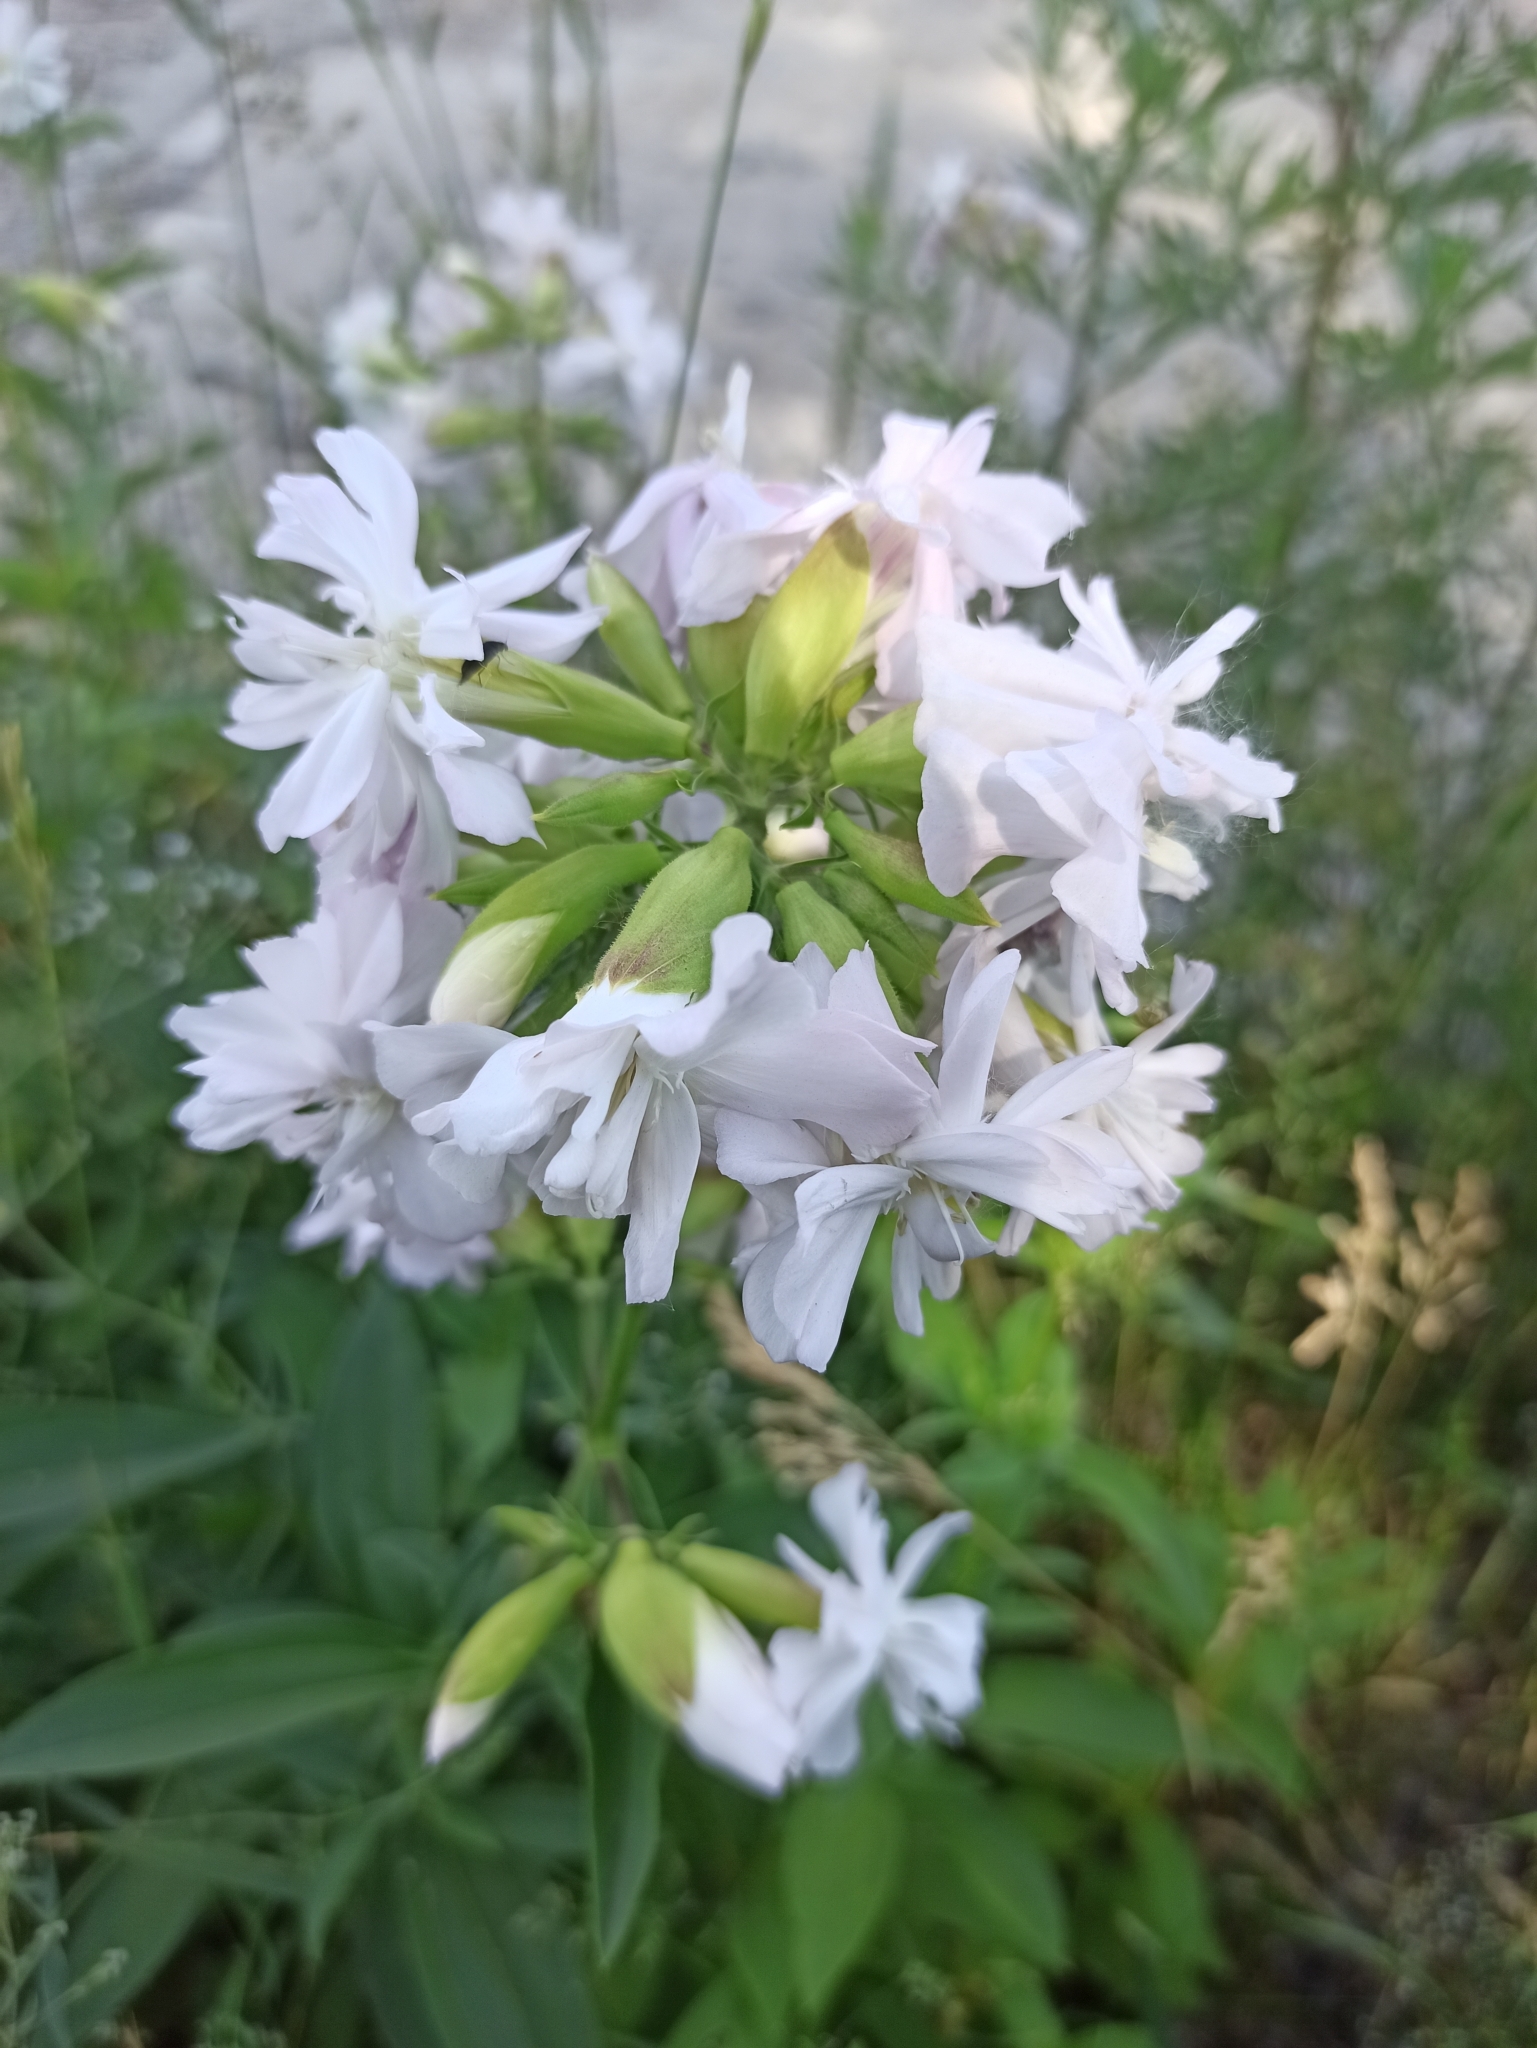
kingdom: Plantae
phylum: Tracheophyta
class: Magnoliopsida
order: Caryophyllales
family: Caryophyllaceae
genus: Saponaria
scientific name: Saponaria officinalis
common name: Soapwort
